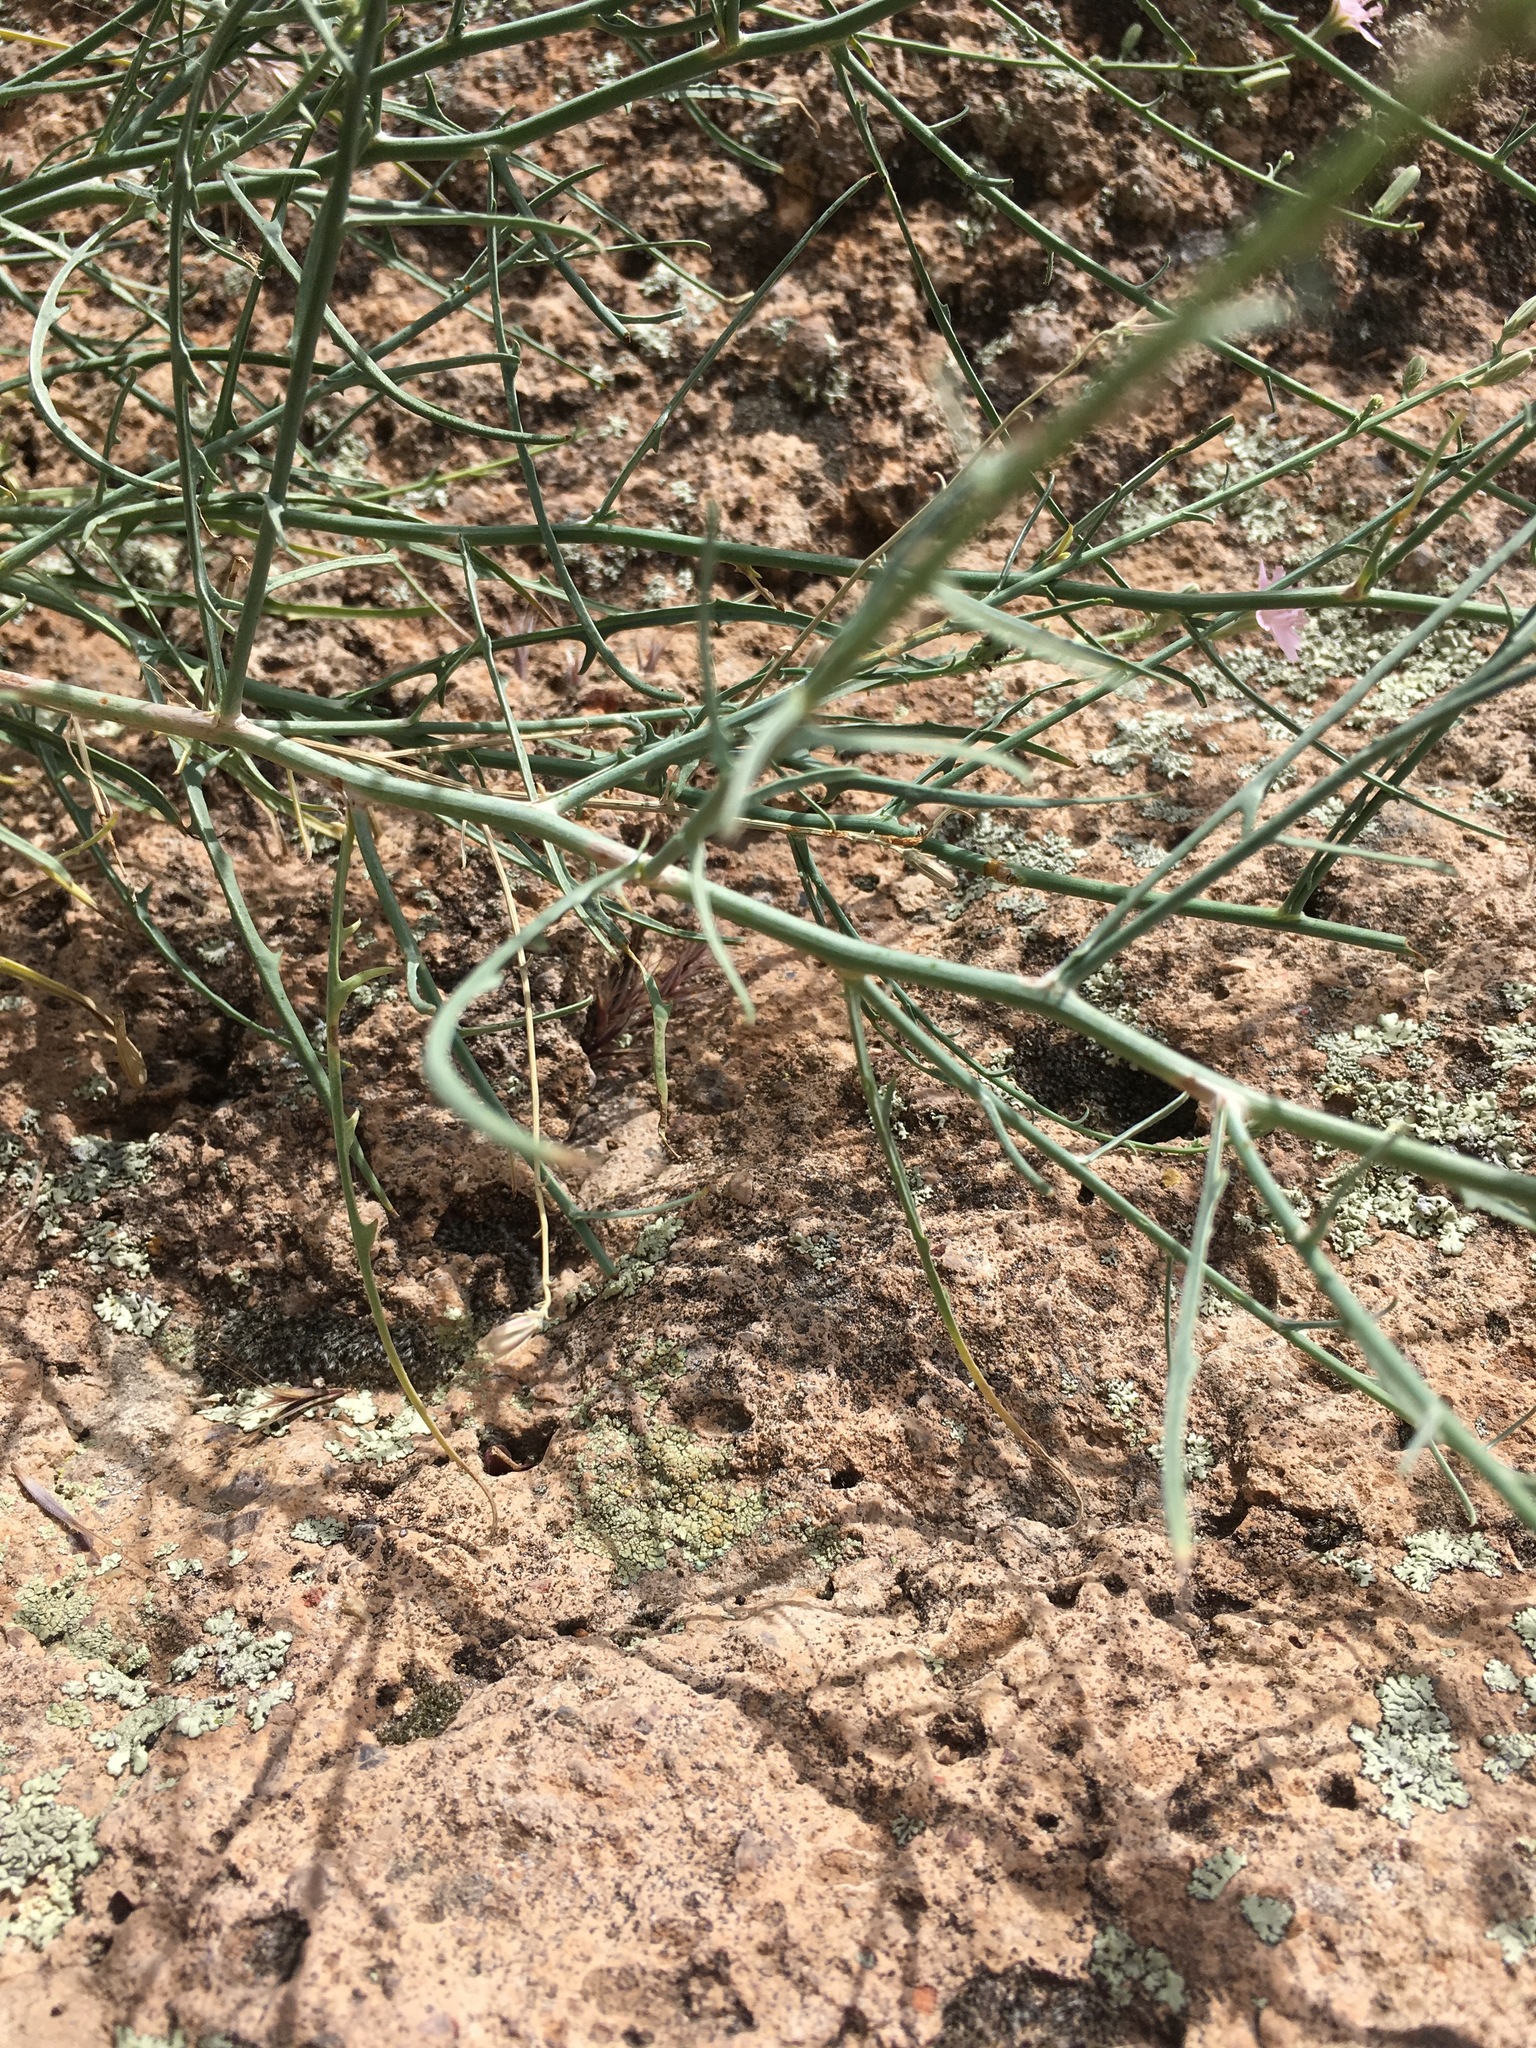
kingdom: Plantae
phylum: Tracheophyta
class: Magnoliopsida
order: Asterales
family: Asteraceae
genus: Stephanomeria
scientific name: Stephanomeria pauciflora
